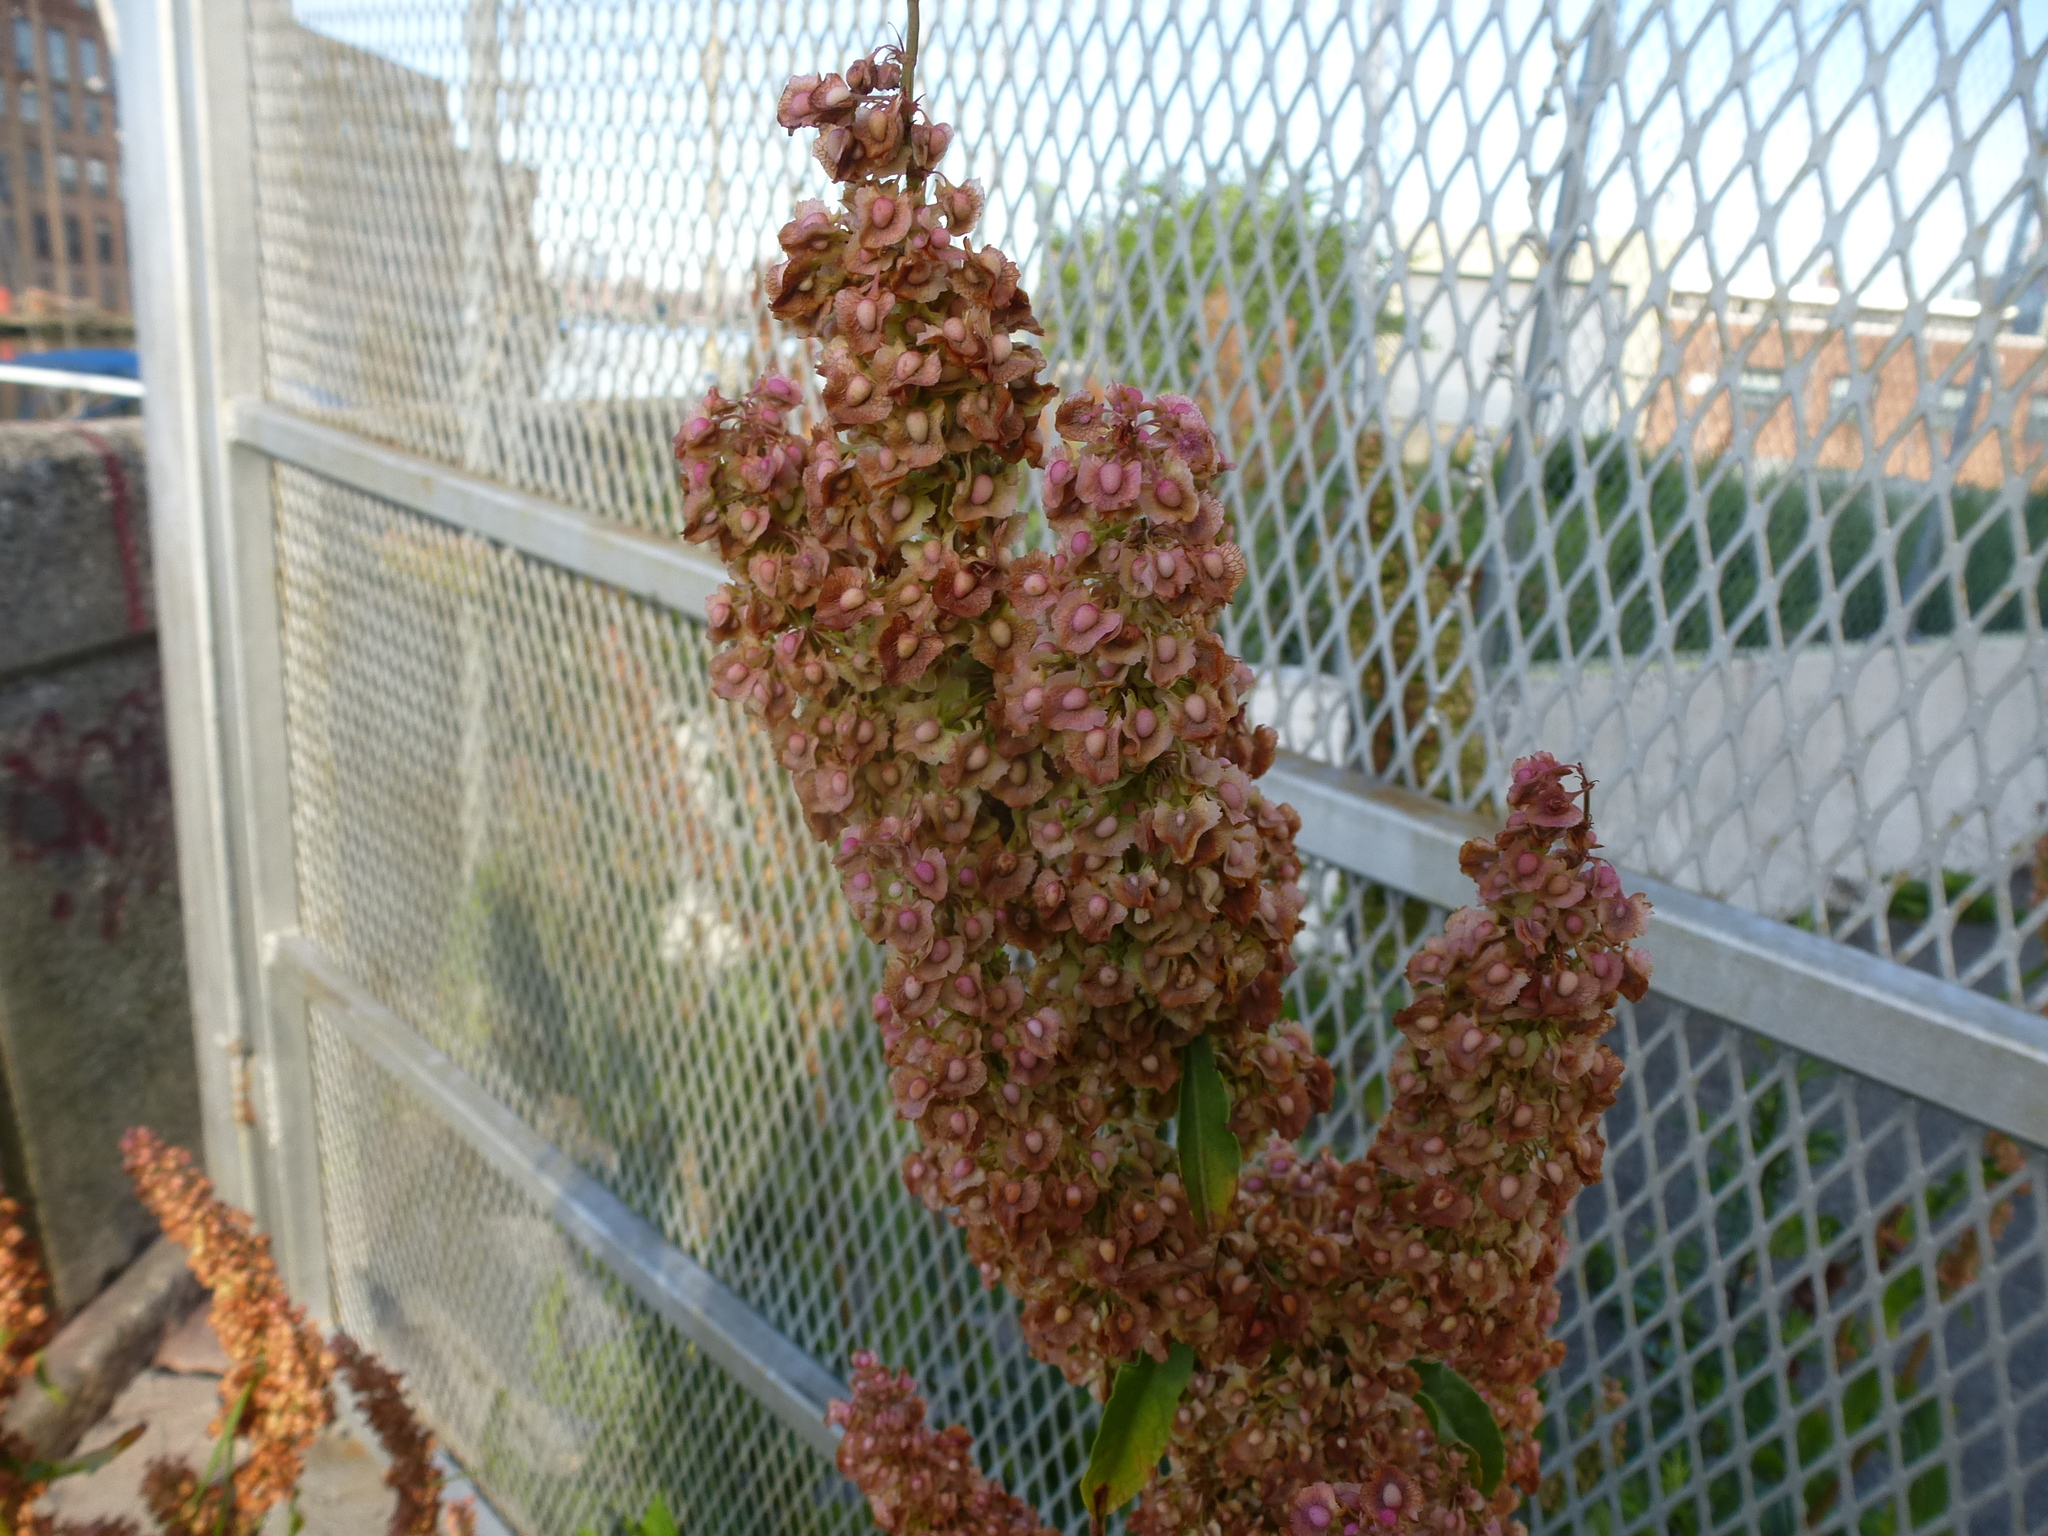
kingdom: Plantae
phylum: Tracheophyta
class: Magnoliopsida
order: Caryophyllales
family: Polygonaceae
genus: Rumex
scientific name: Rumex crispus
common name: Curled dock
